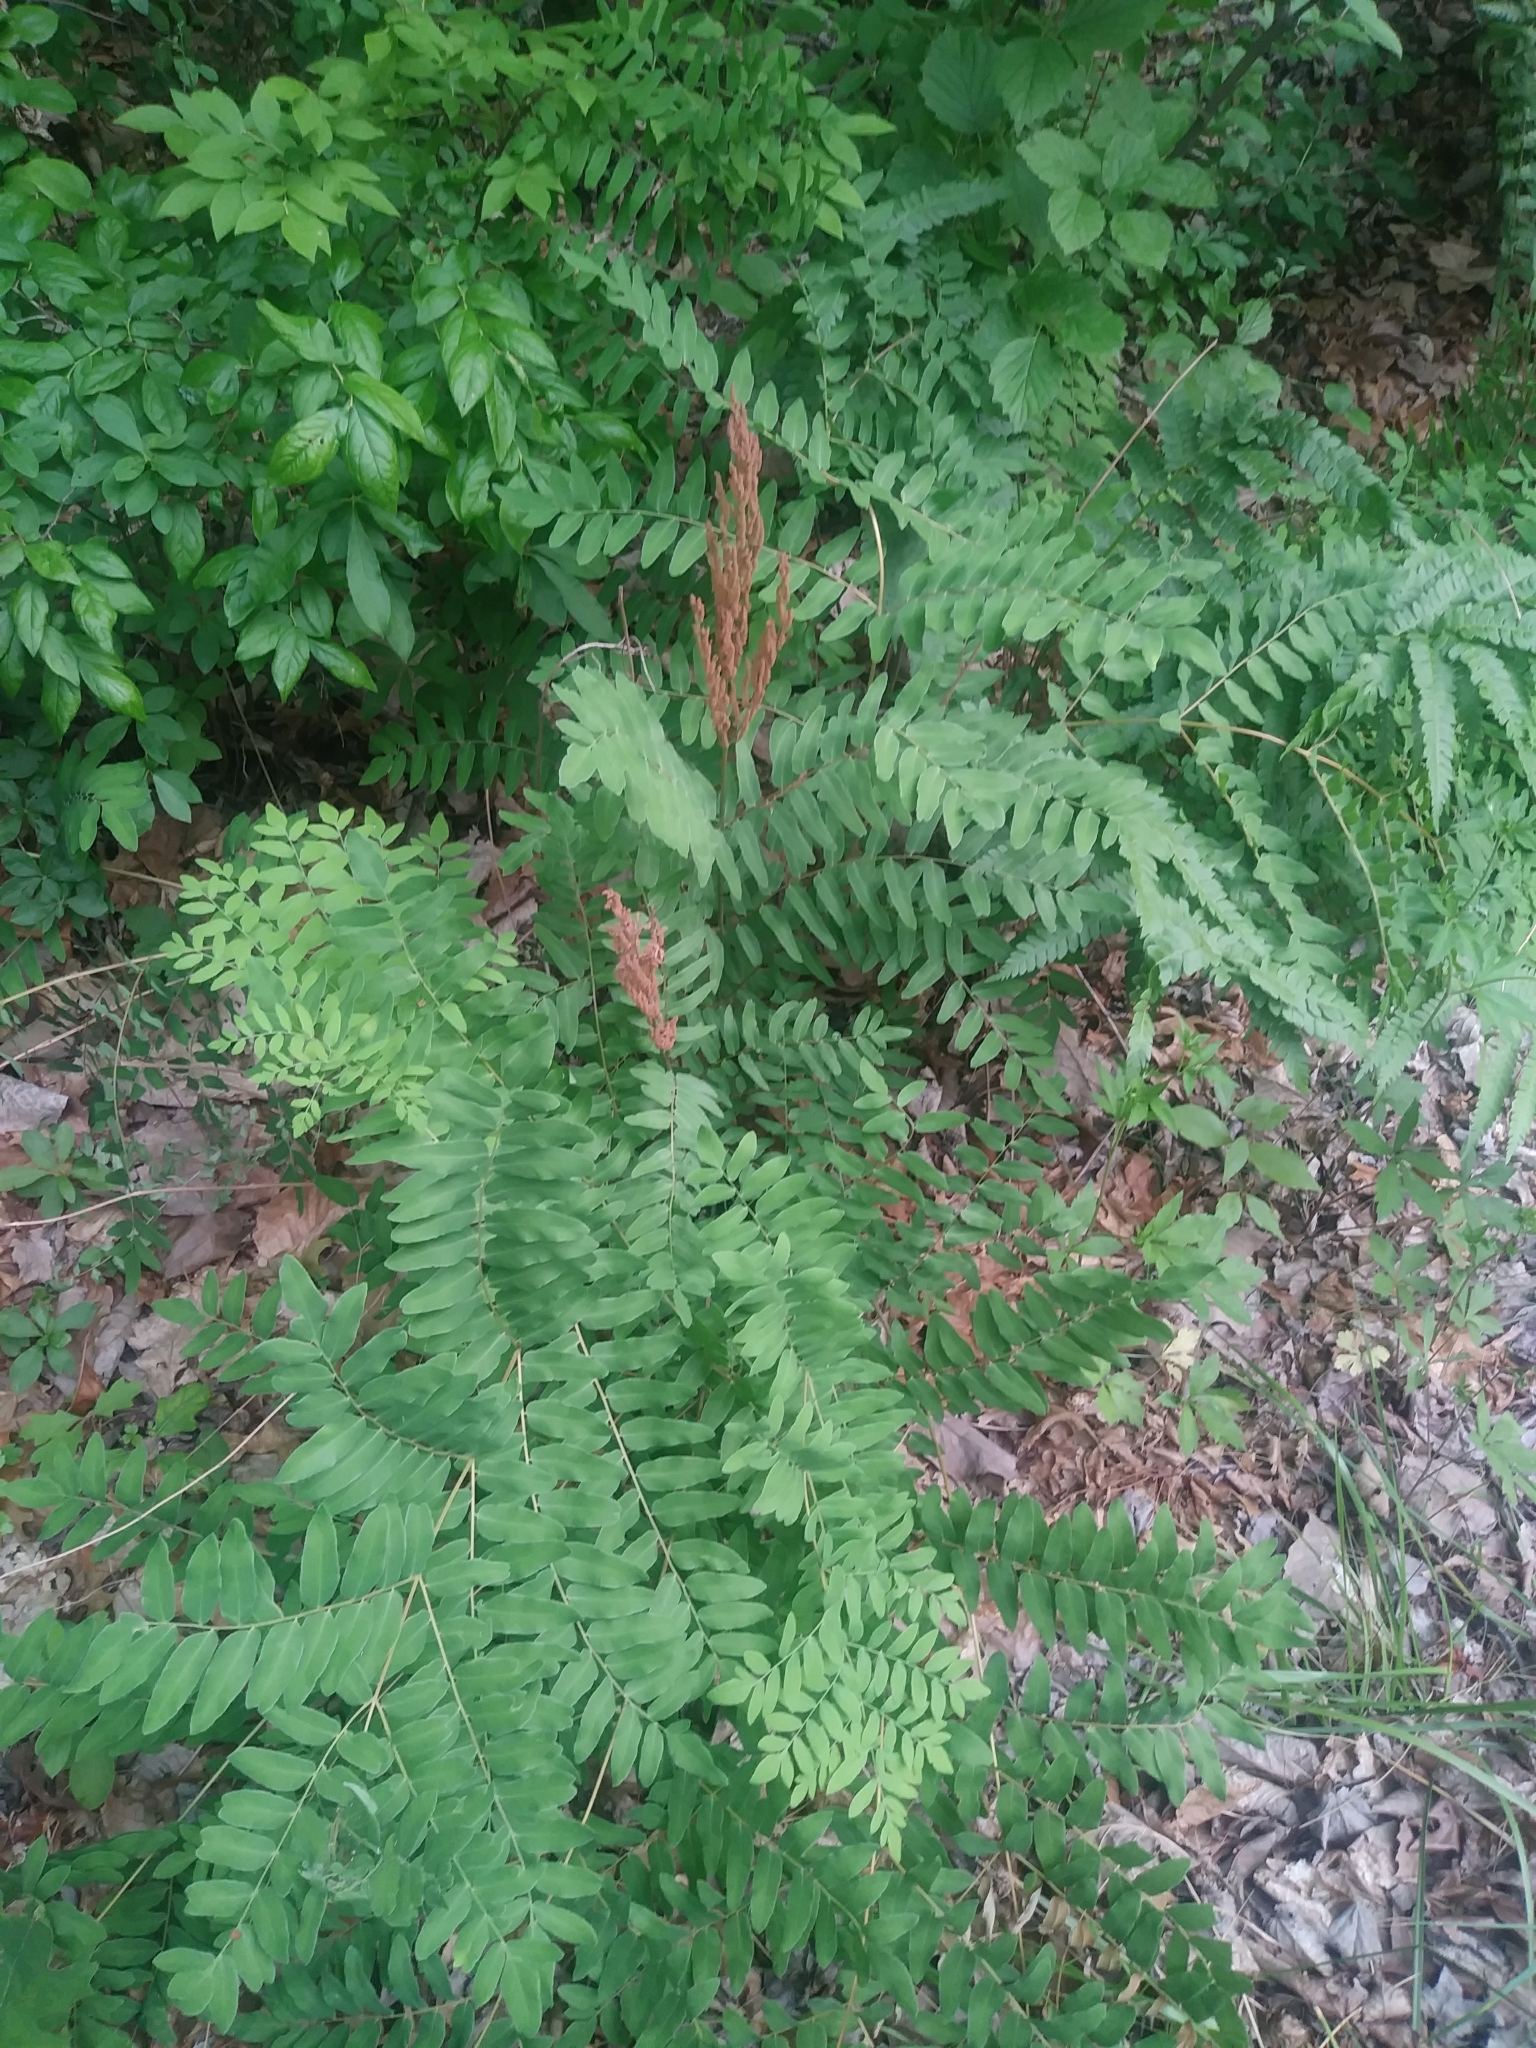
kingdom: Plantae
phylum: Tracheophyta
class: Polypodiopsida
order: Osmundales
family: Osmundaceae
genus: Osmunda
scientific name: Osmunda spectabilis
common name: American royal fern
